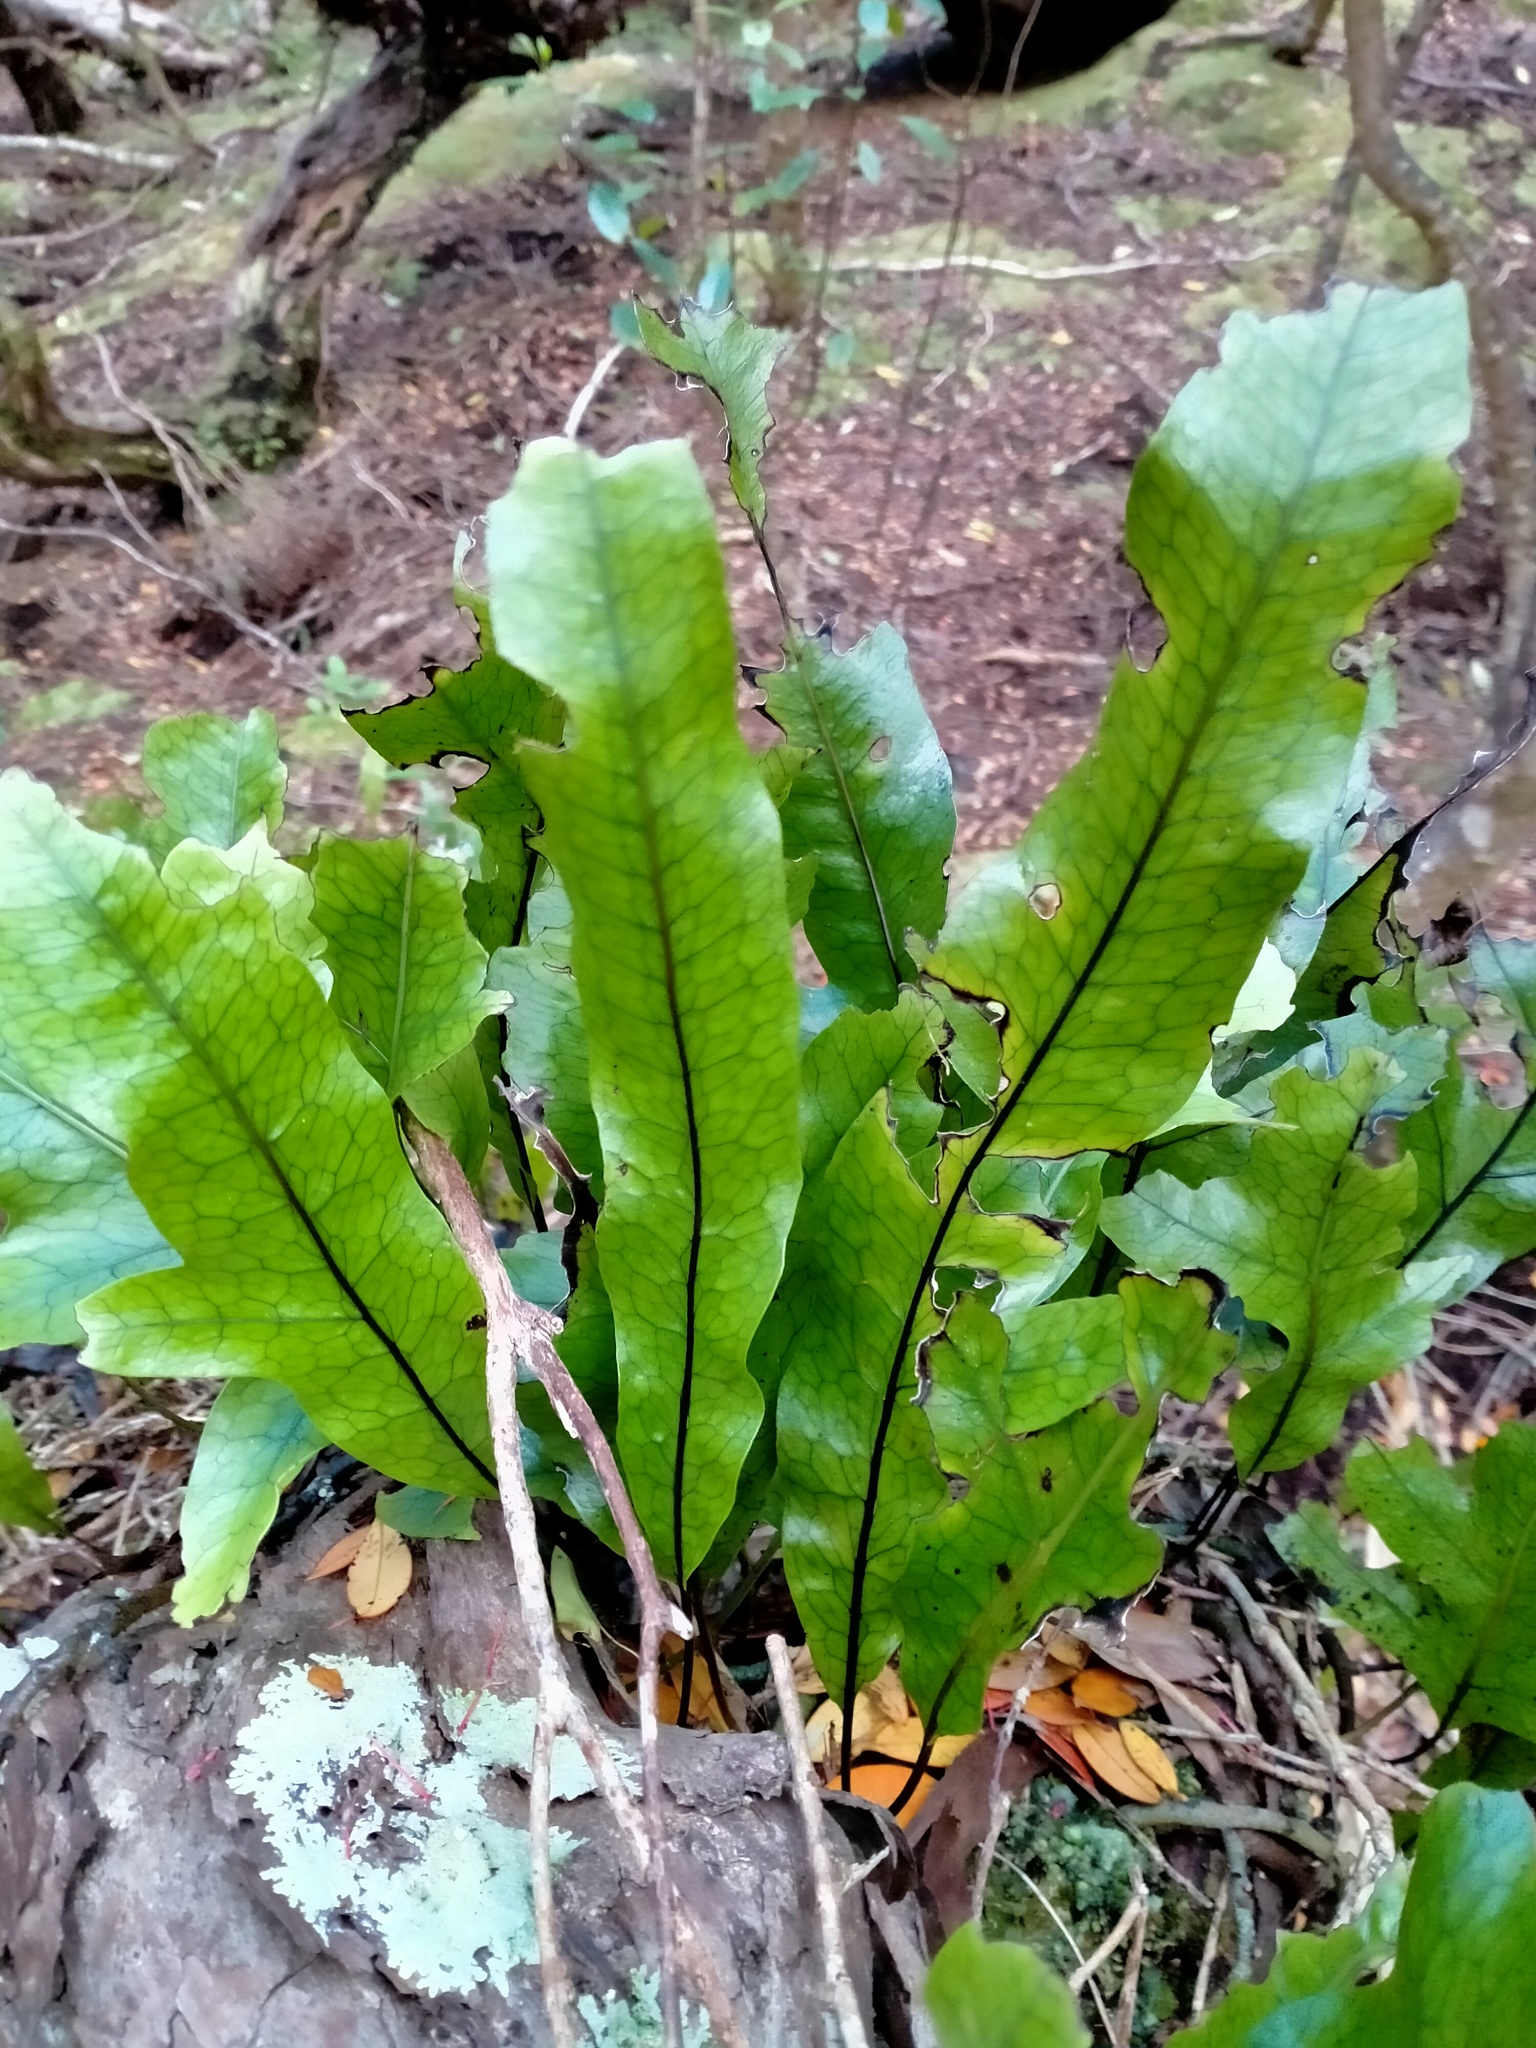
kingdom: Plantae
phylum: Tracheophyta
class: Polypodiopsida
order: Polypodiales
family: Polypodiaceae
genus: Lecanopteris
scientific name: Lecanopteris pustulata
